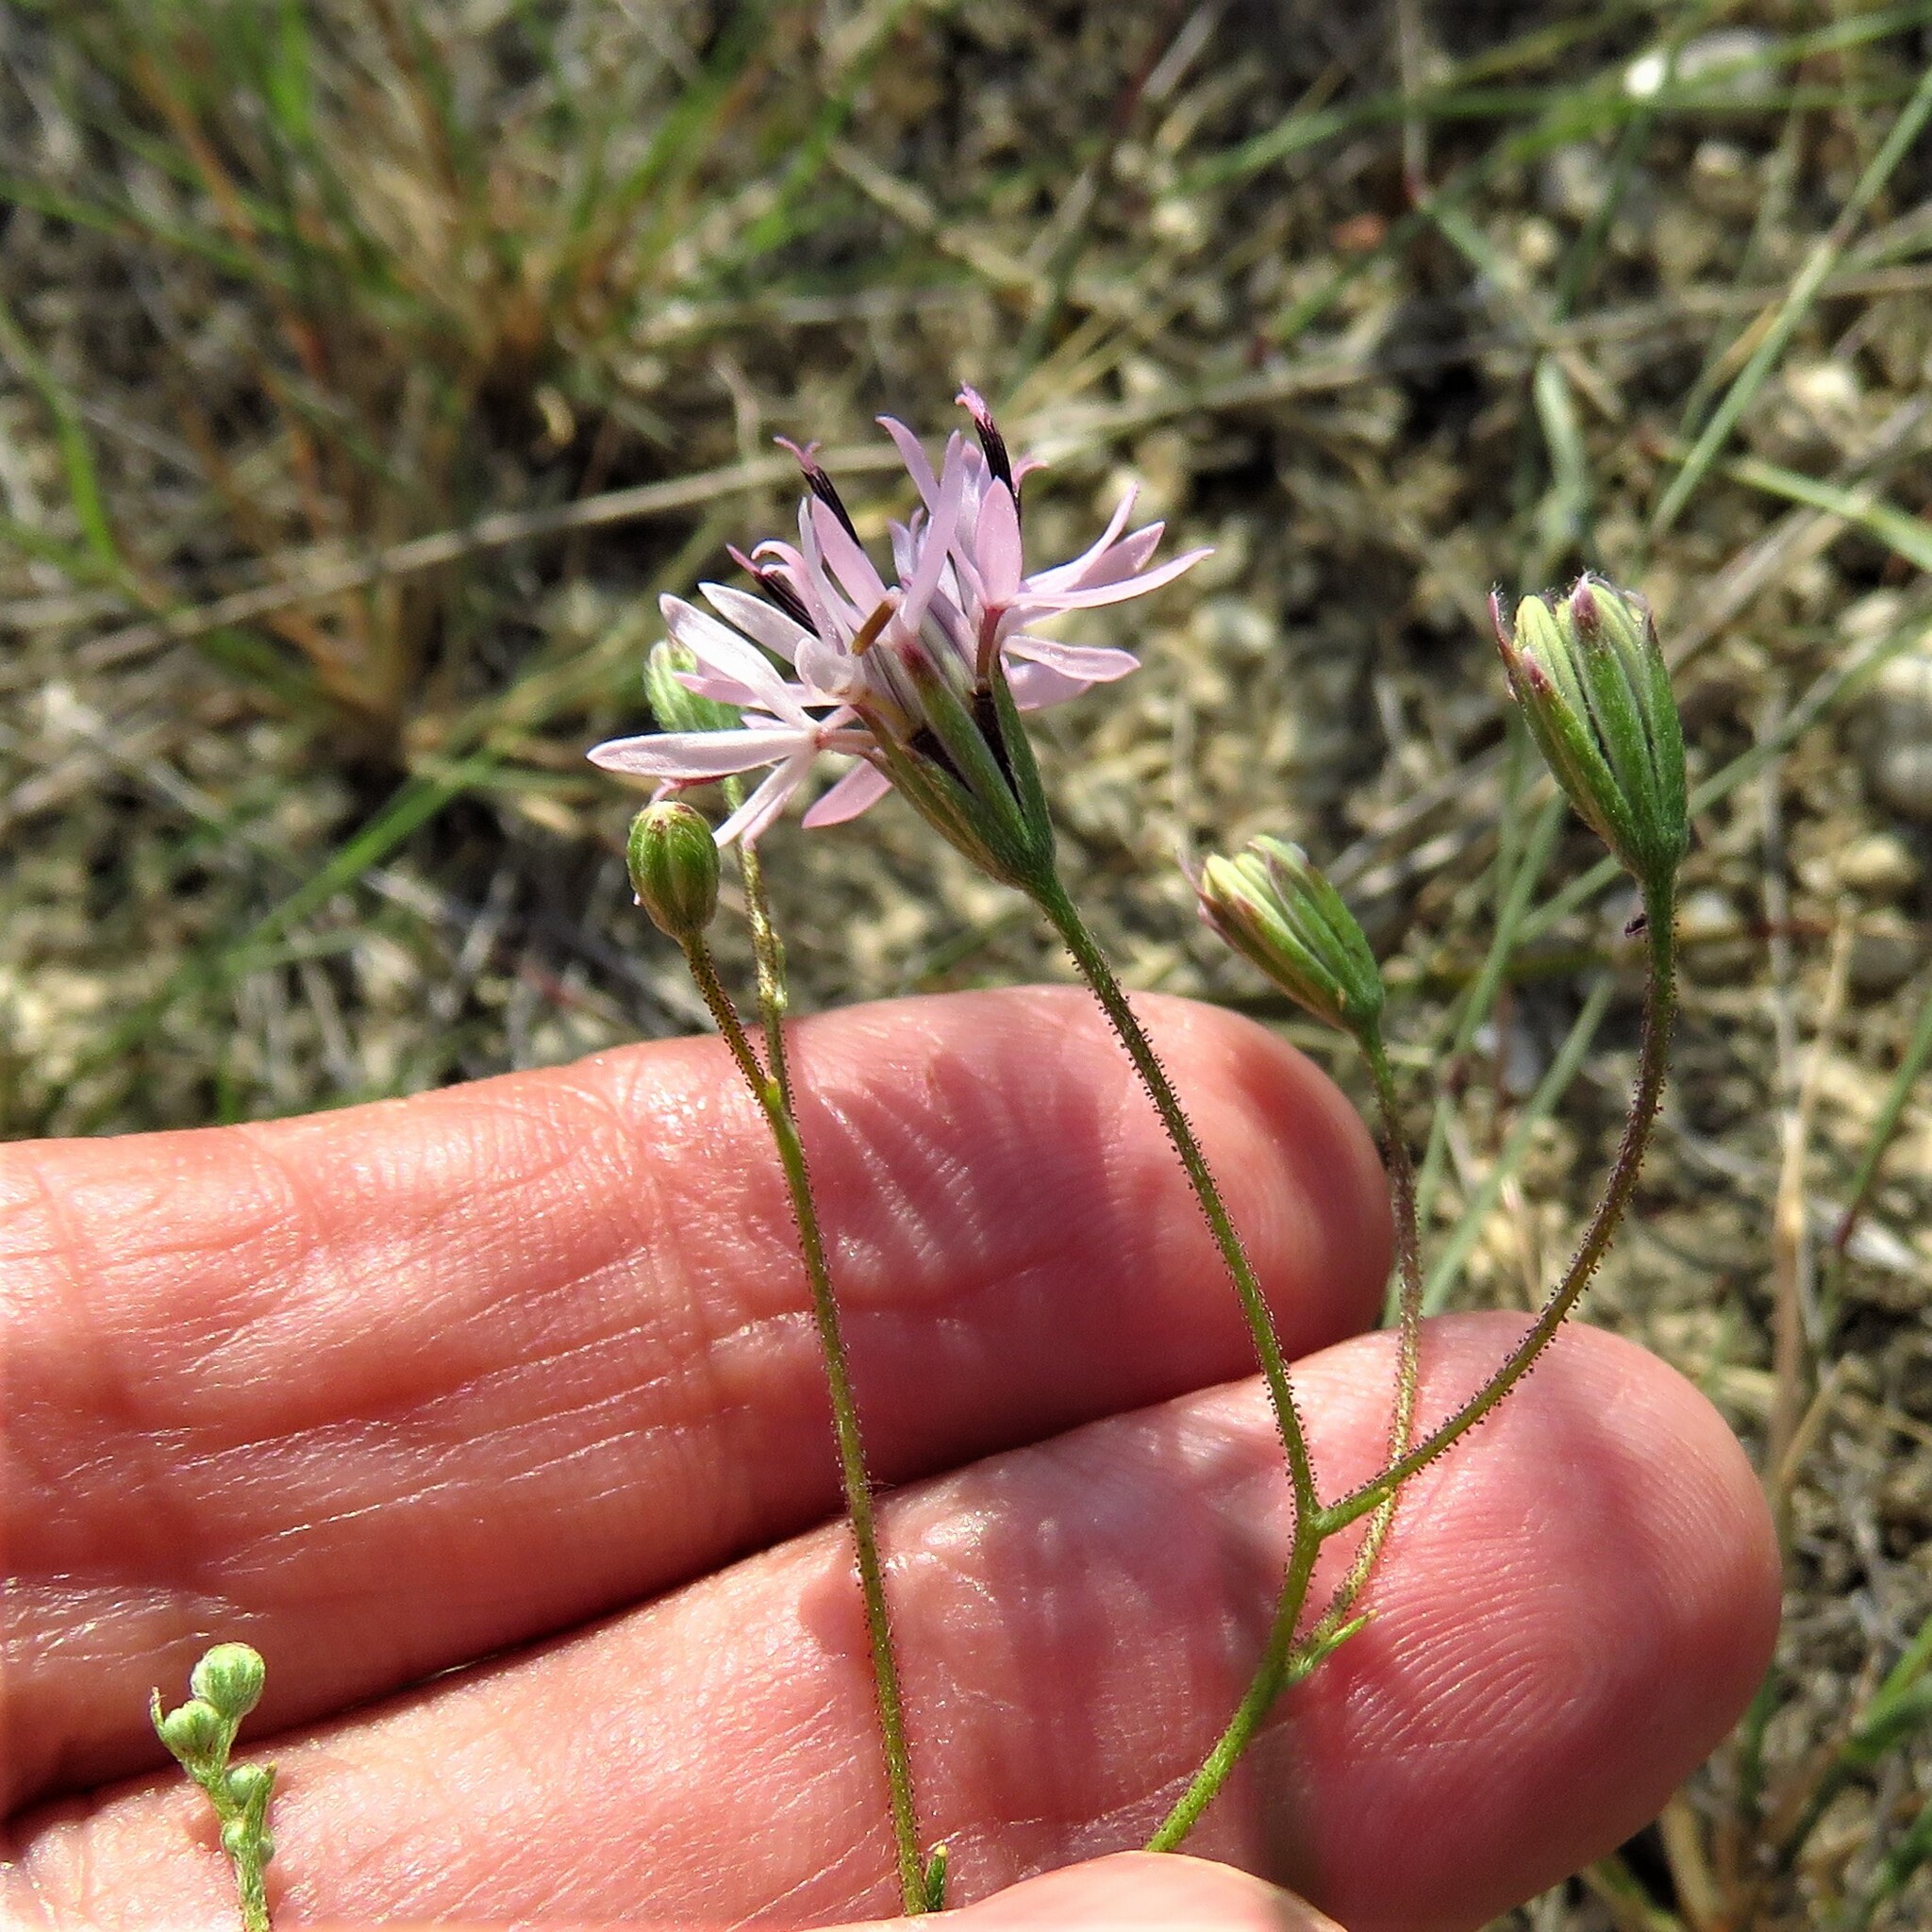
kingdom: Plantae
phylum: Tracheophyta
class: Magnoliopsida
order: Asterales
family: Asteraceae
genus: Palafoxia
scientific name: Palafoxia callosa
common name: Small palafox
